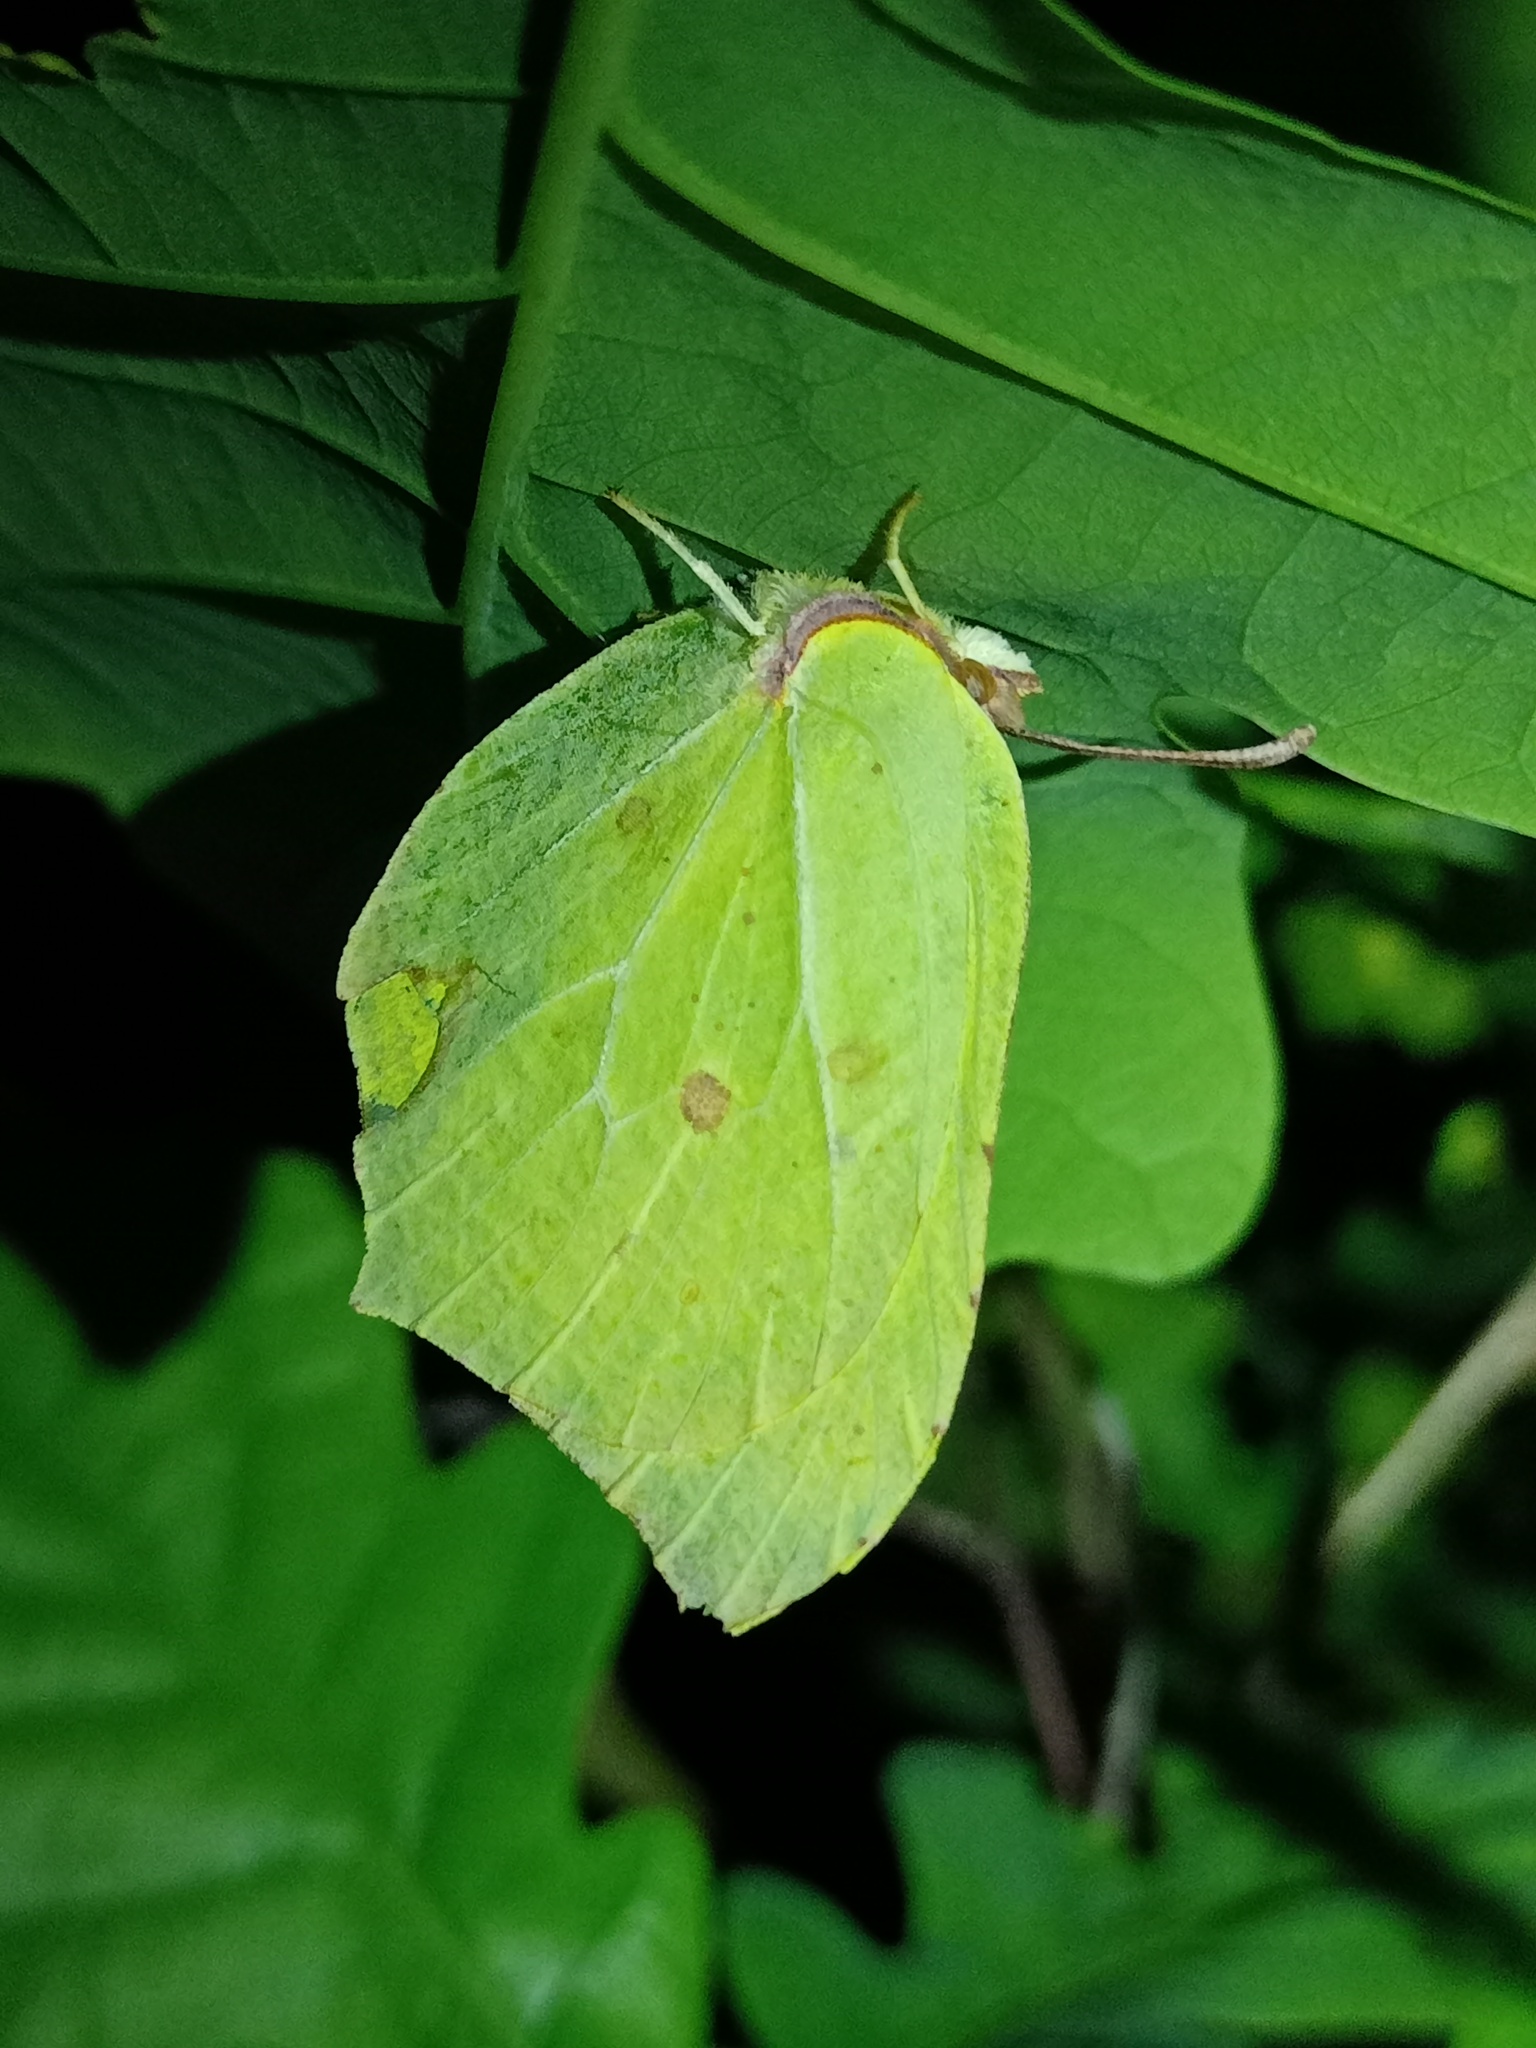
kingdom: Animalia
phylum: Arthropoda
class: Insecta
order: Lepidoptera
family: Pieridae
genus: Gonepteryx
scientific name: Gonepteryx rhamni
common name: Brimstone
